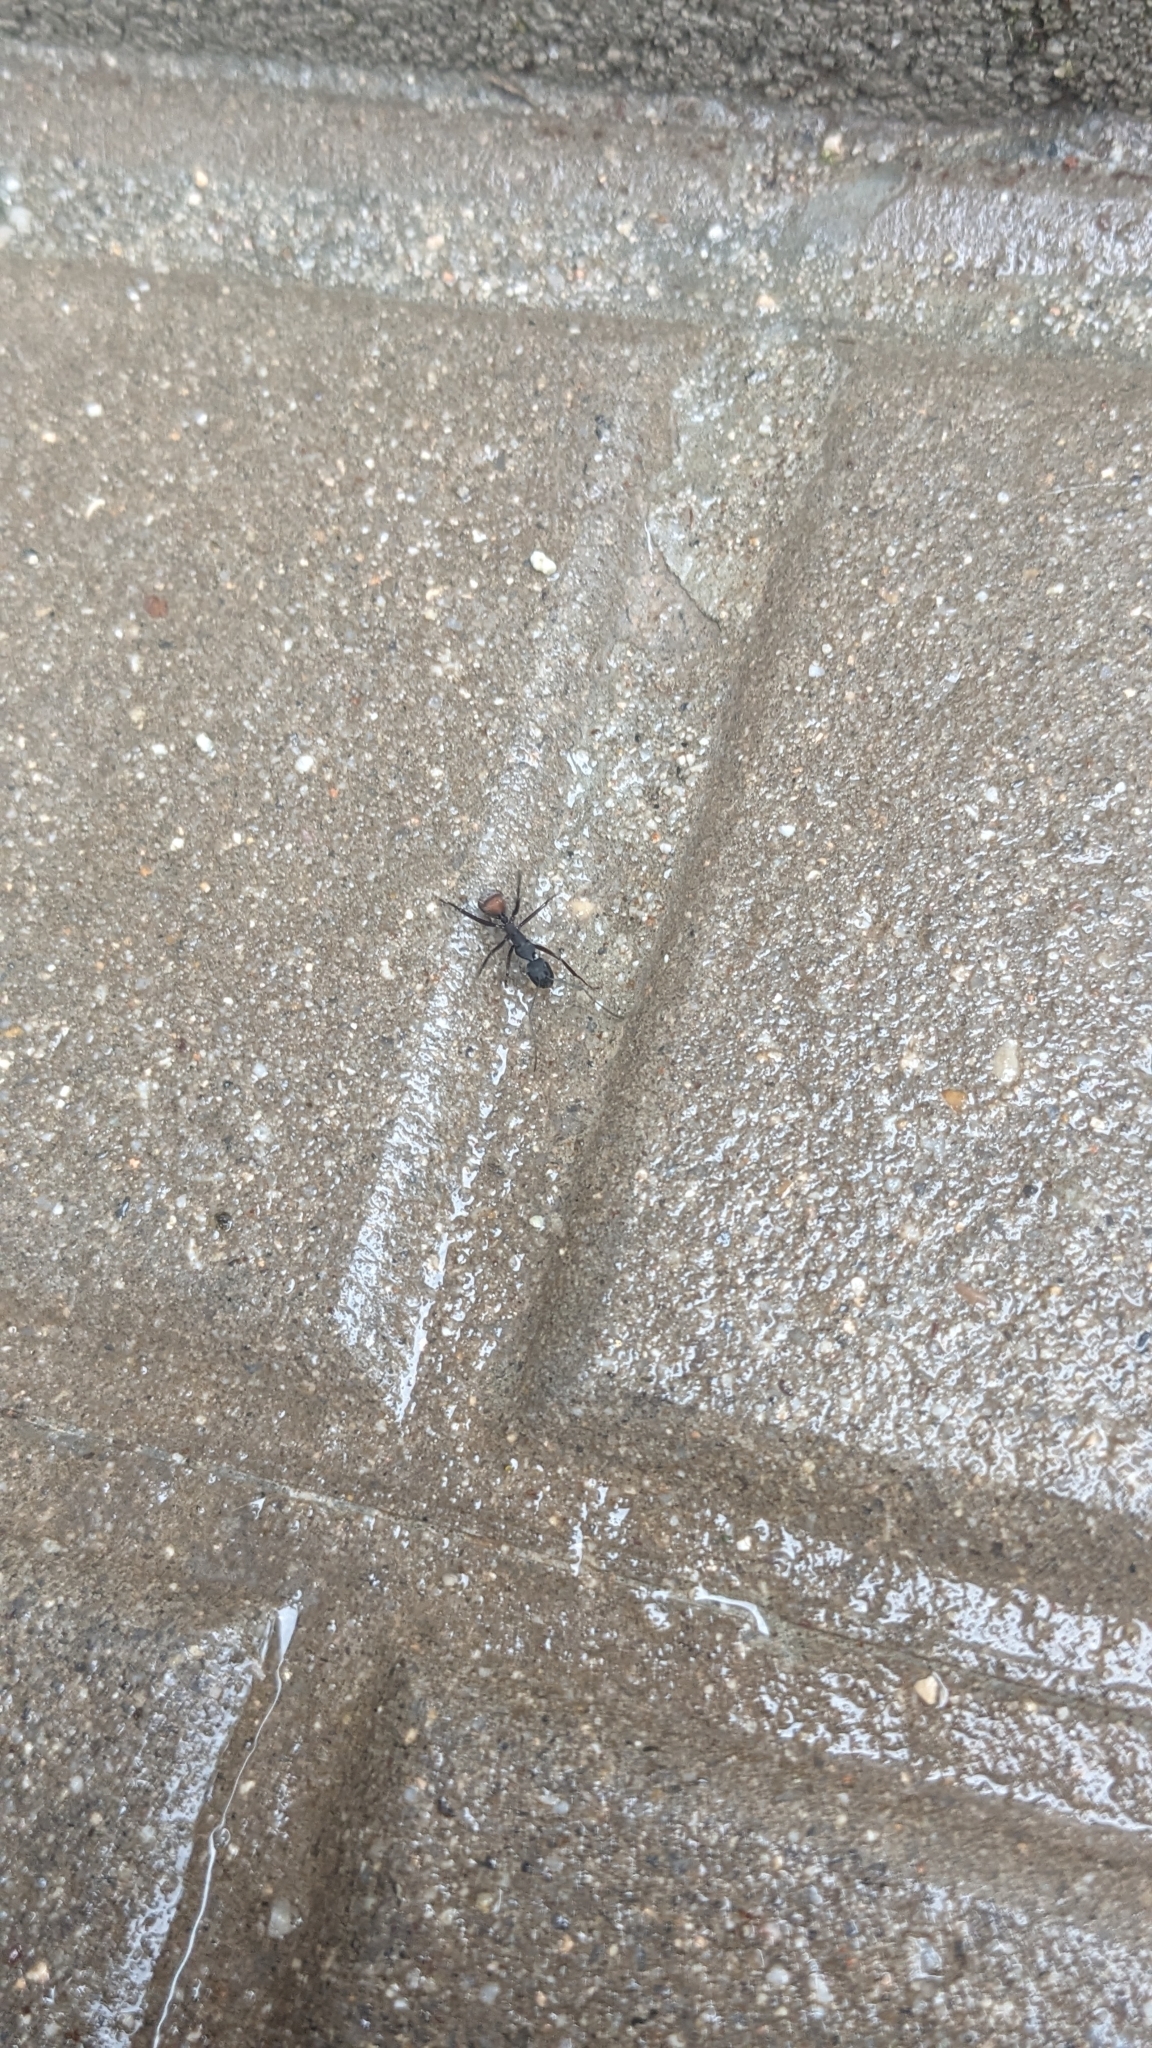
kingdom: Animalia
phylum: Arthropoda
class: Insecta
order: Hymenoptera
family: Formicidae
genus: Camponotus
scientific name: Camponotus cruentatus
